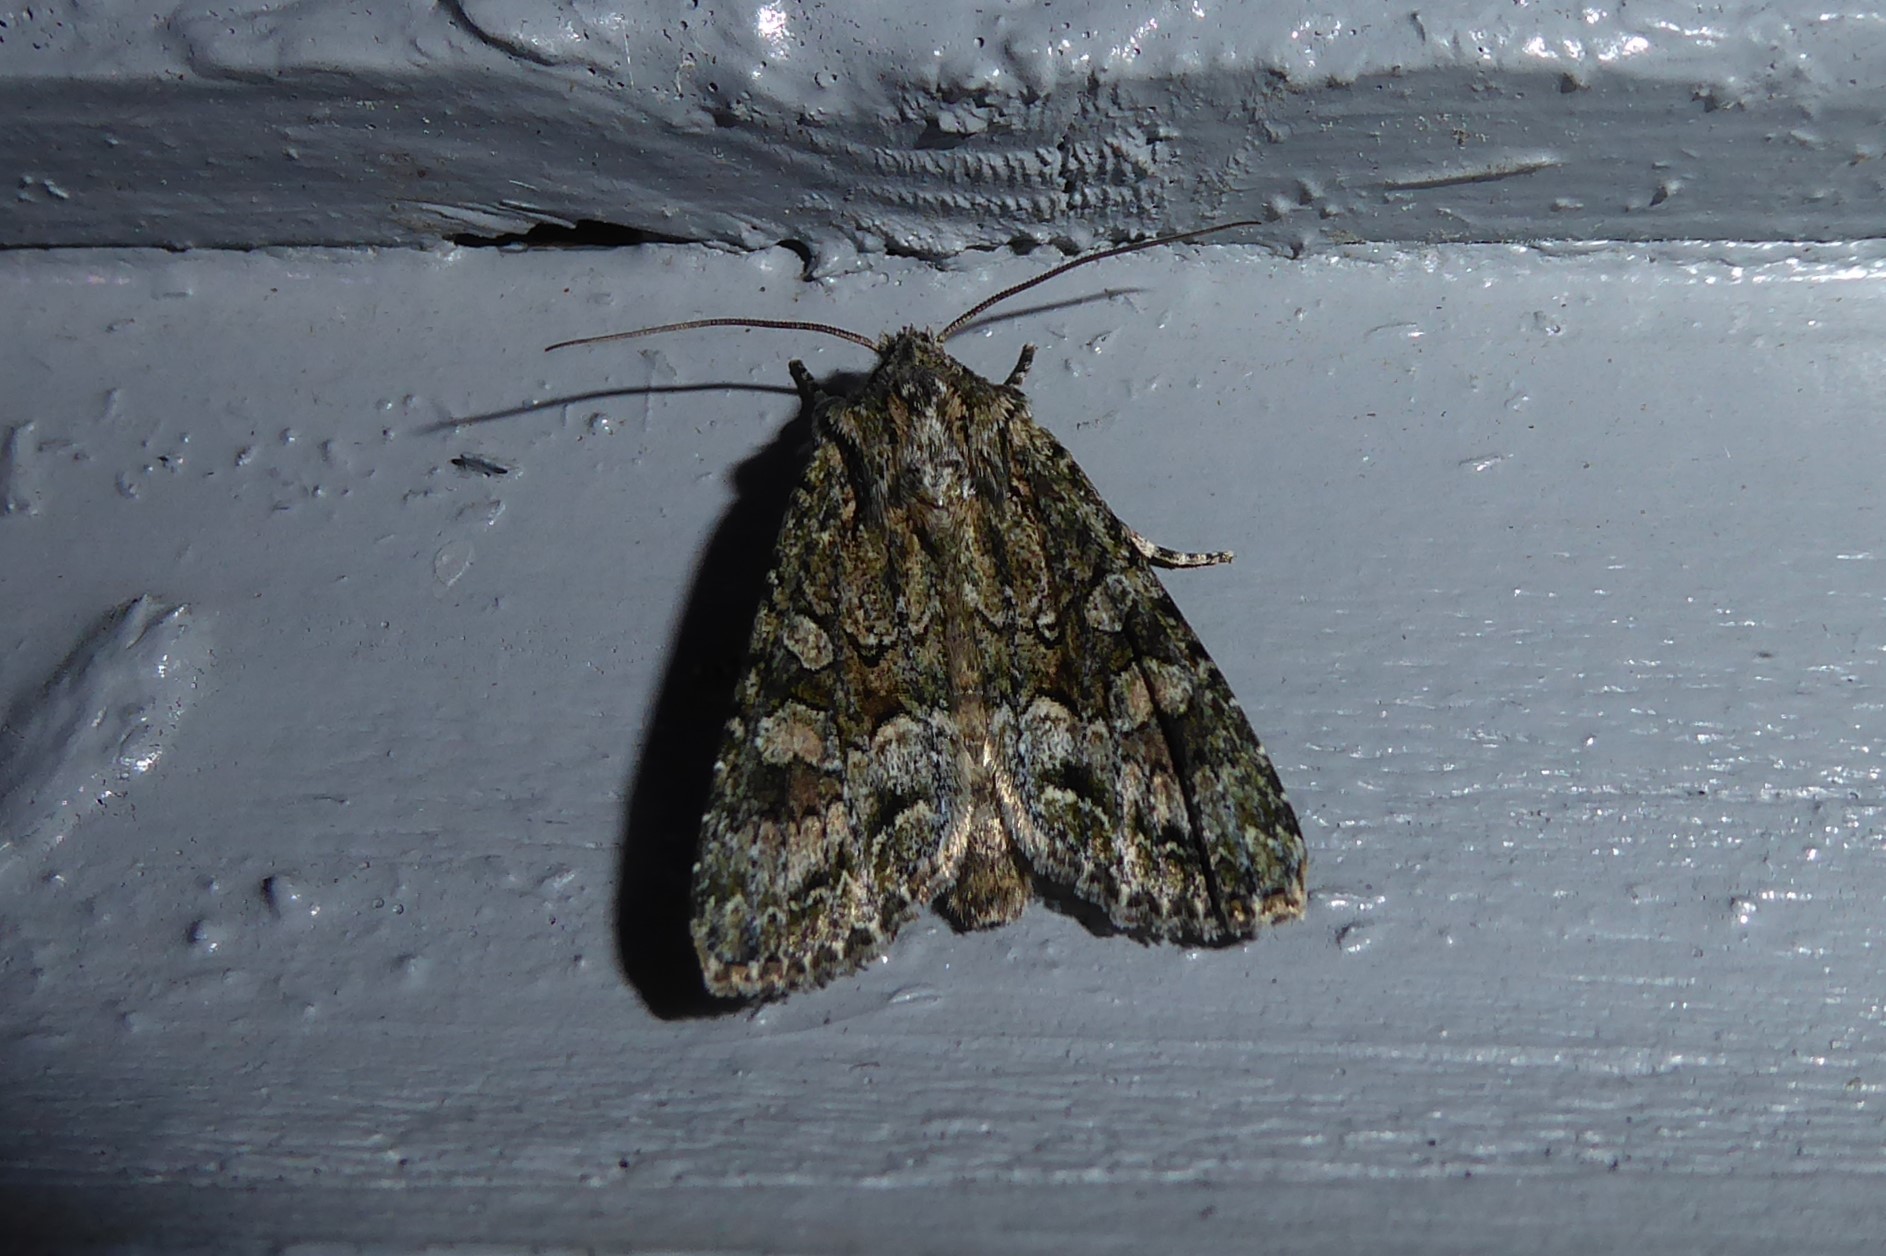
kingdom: Animalia
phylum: Arthropoda
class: Insecta
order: Lepidoptera
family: Noctuidae
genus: Ichneutica
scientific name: Ichneutica mutans
